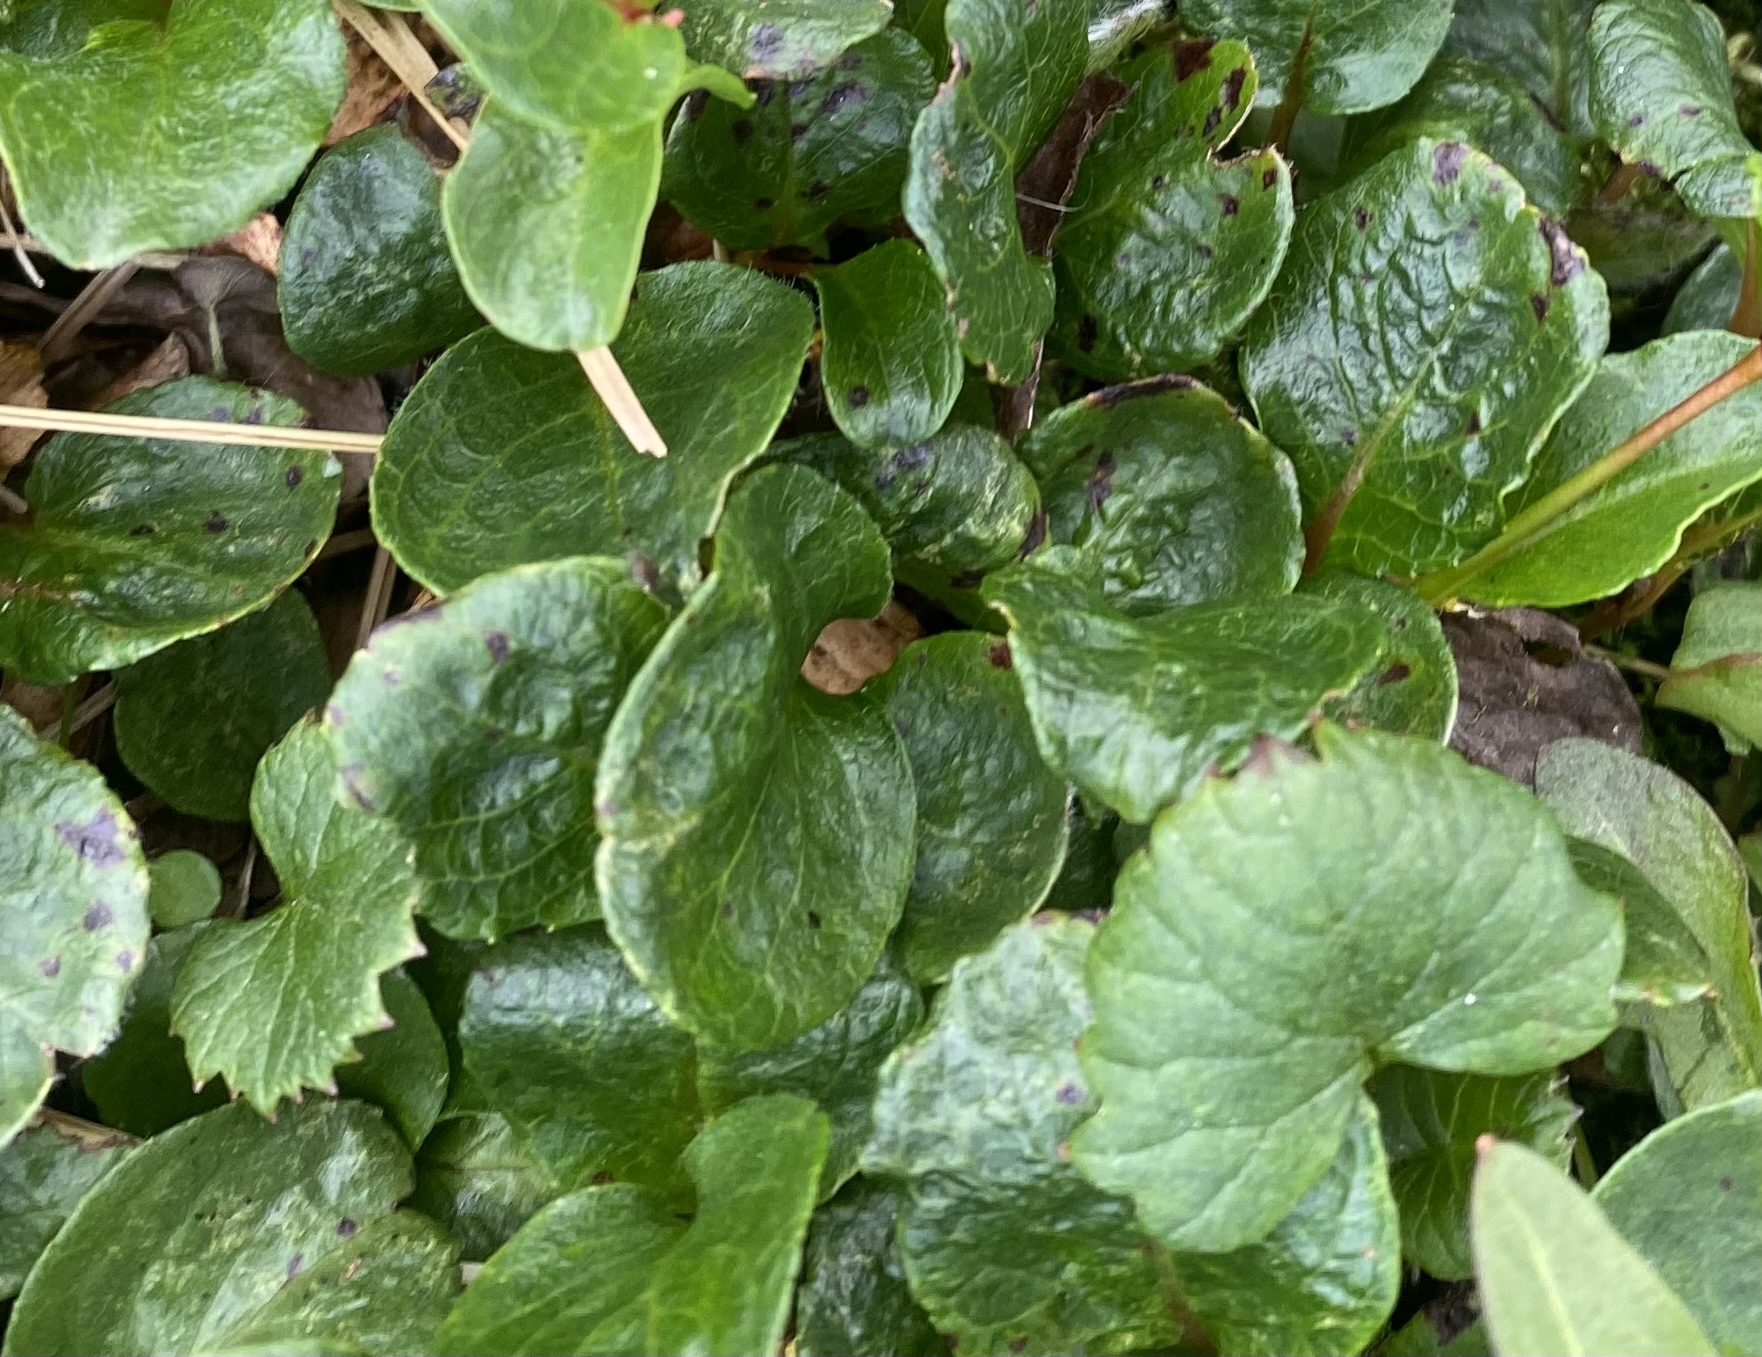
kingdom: Plantae
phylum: Tracheophyta
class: Magnoliopsida
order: Asterales
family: Asteraceae
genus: Endocellion
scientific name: Endocellion glaciale
